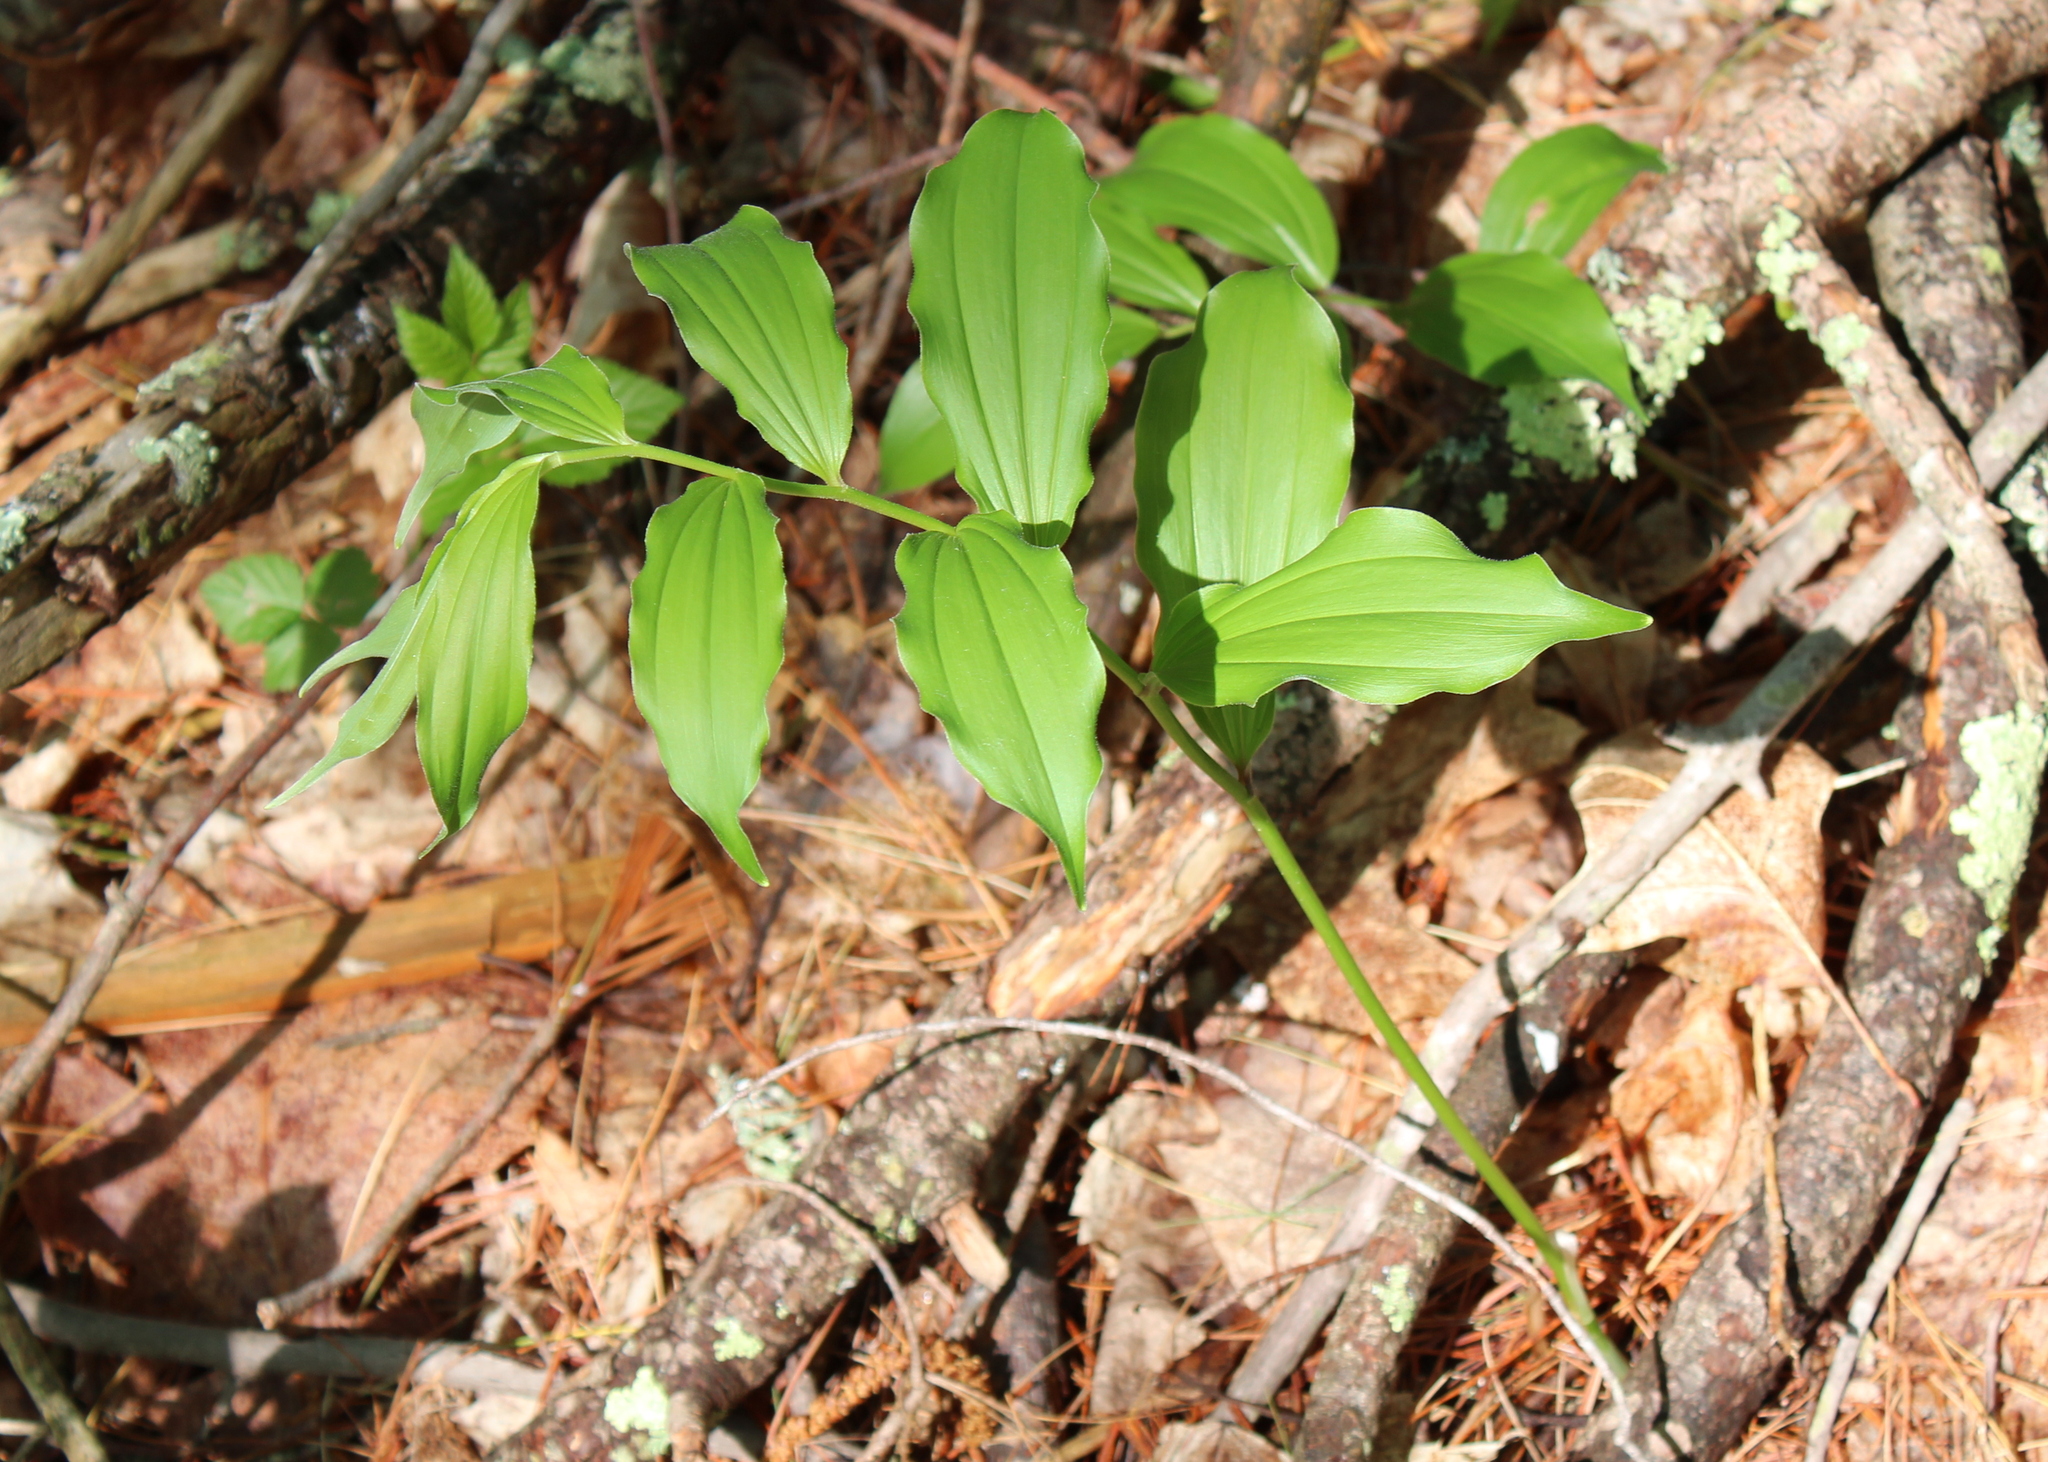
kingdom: Plantae
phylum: Tracheophyta
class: Liliopsida
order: Asparagales
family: Asparagaceae
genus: Maianthemum
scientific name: Maianthemum racemosum
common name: False spikenard
